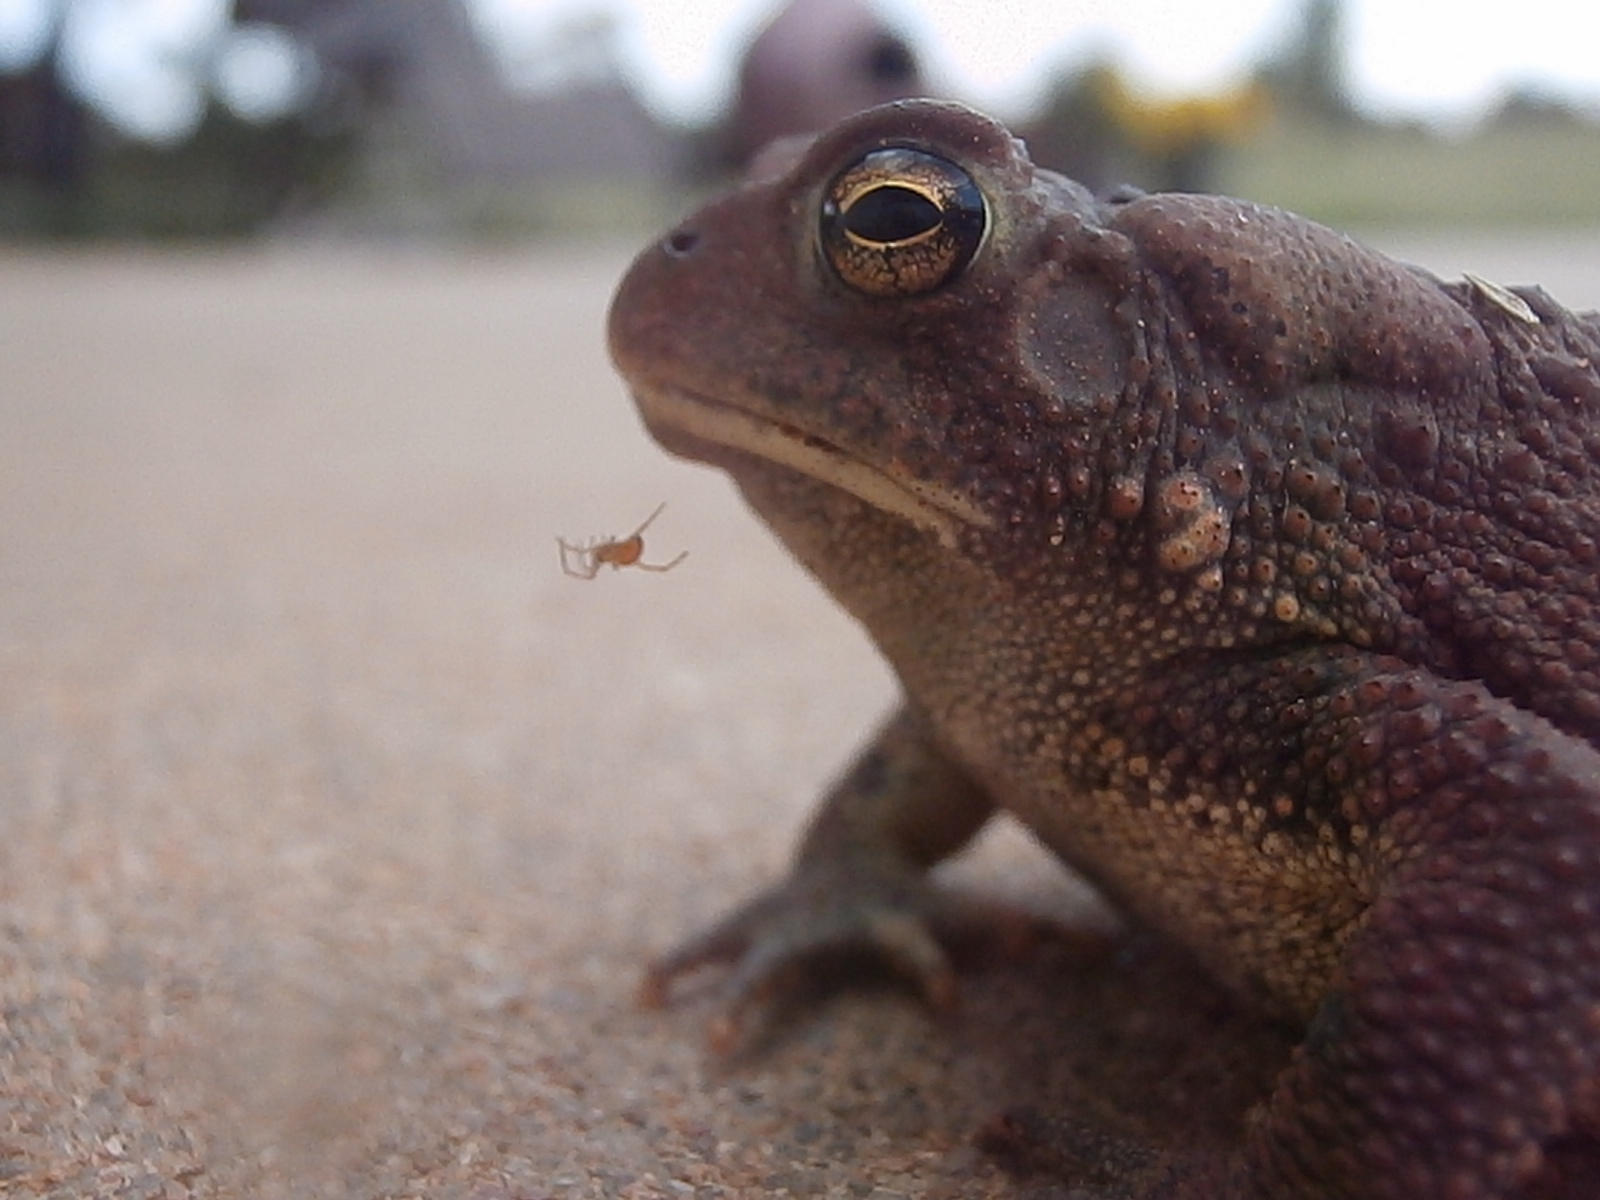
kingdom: Animalia
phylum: Chordata
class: Amphibia
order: Anura
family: Bufonidae
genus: Anaxyrus
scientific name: Anaxyrus americanus
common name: American toad
